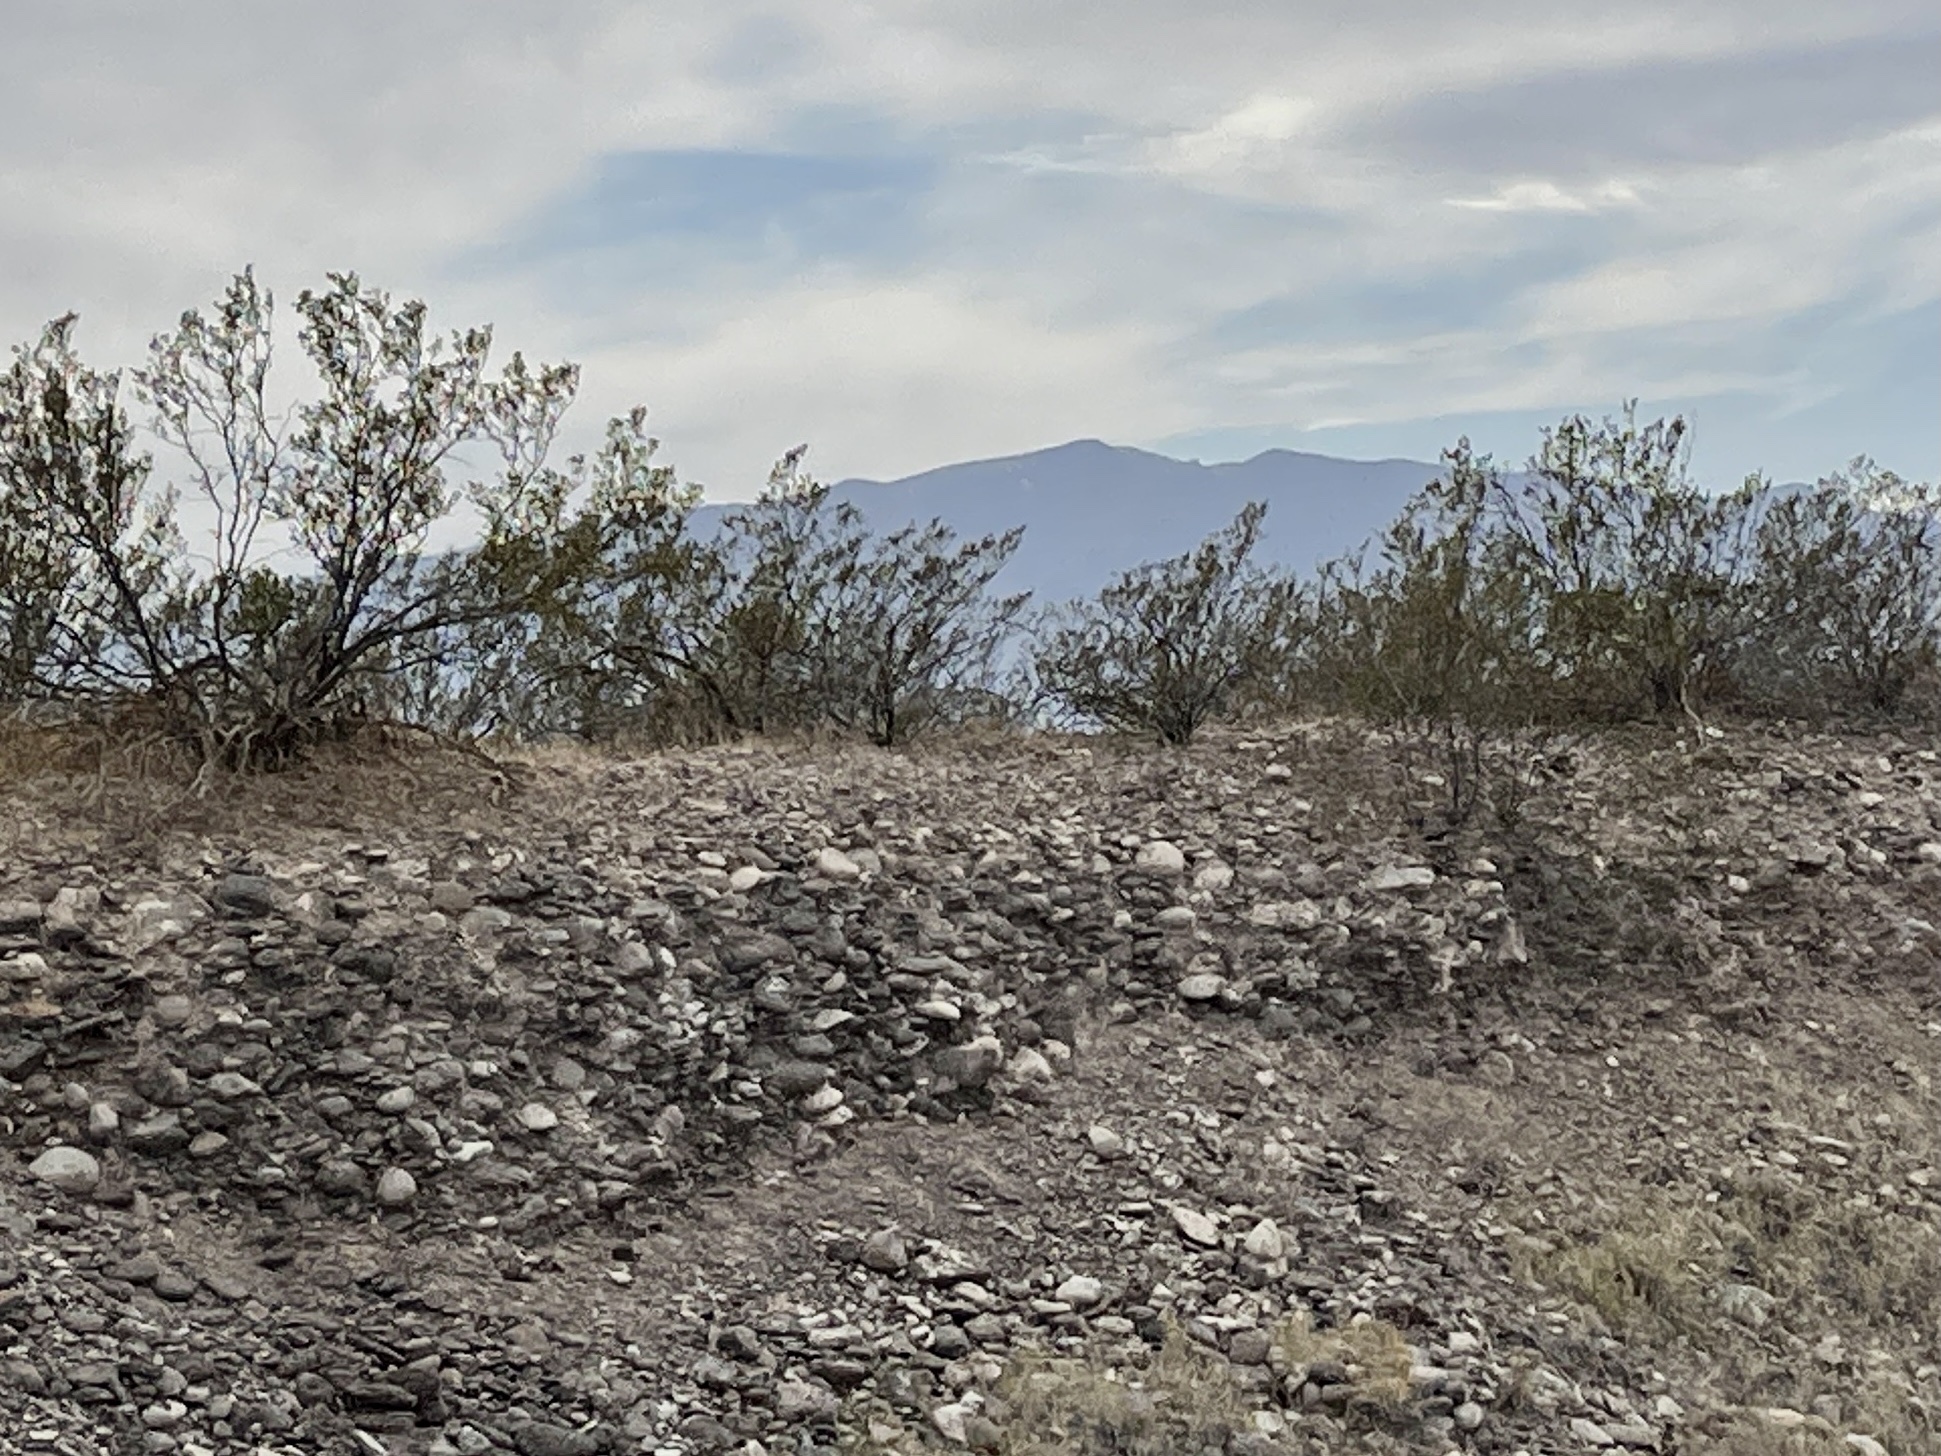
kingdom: Plantae
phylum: Tracheophyta
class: Magnoliopsida
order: Zygophyllales
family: Zygophyllaceae
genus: Larrea
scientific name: Larrea tridentata
